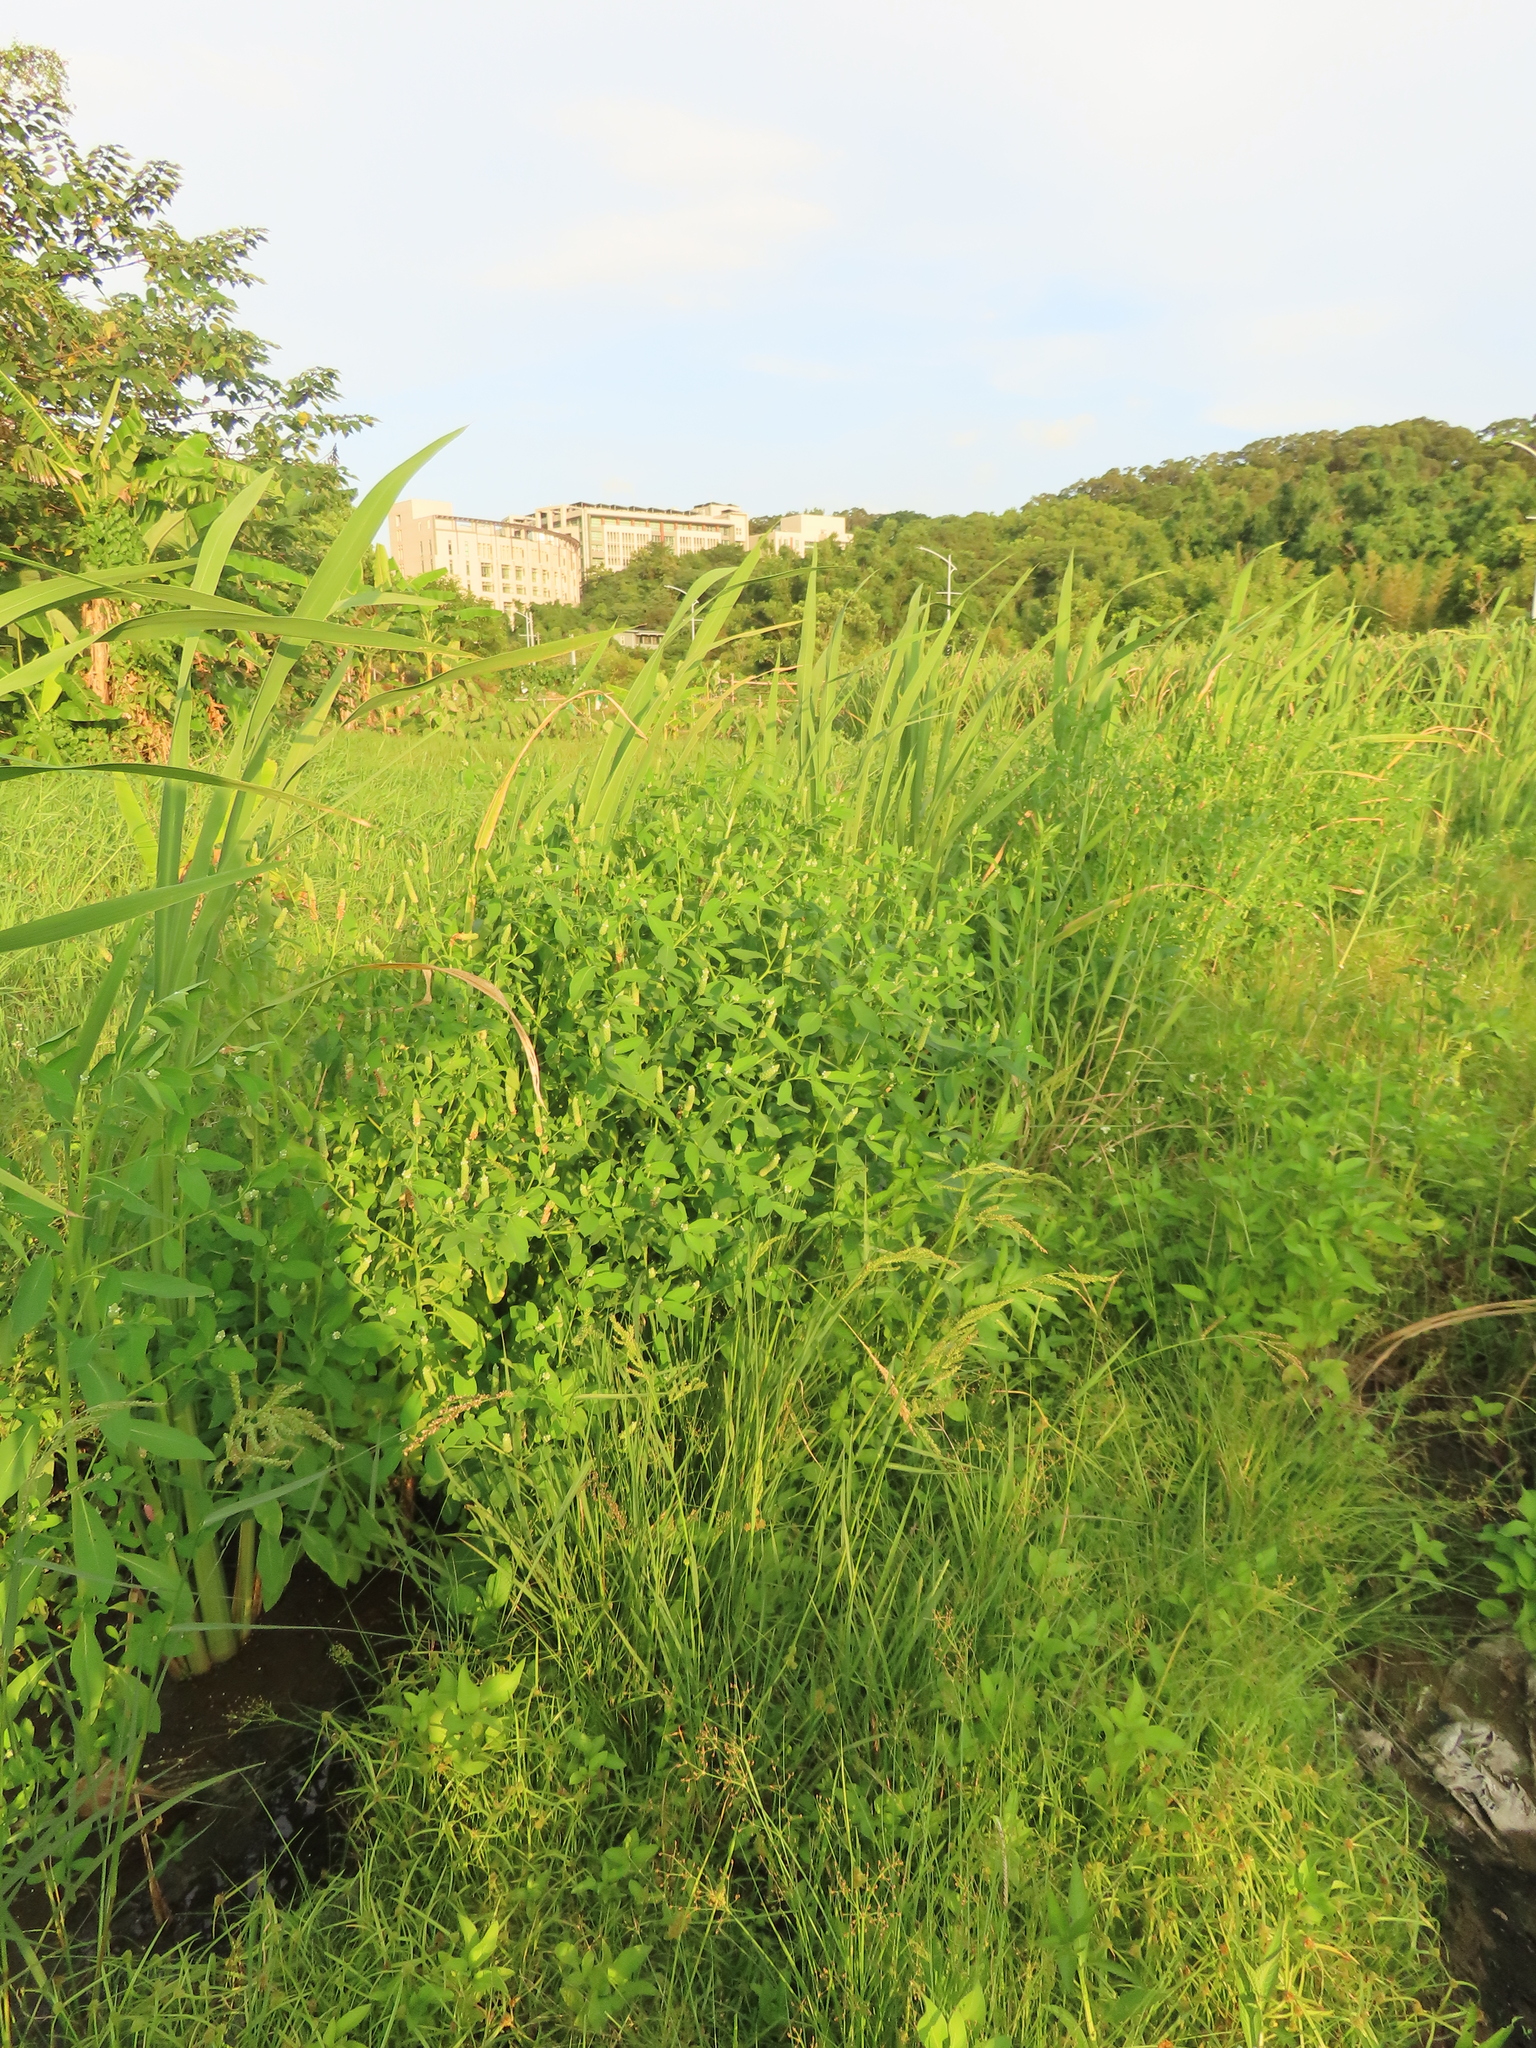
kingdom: Plantae
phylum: Tracheophyta
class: Magnoliopsida
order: Solanales
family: Sphenocleaceae
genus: Sphenoclea
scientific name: Sphenoclea zeylanica
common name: Chickenspike
